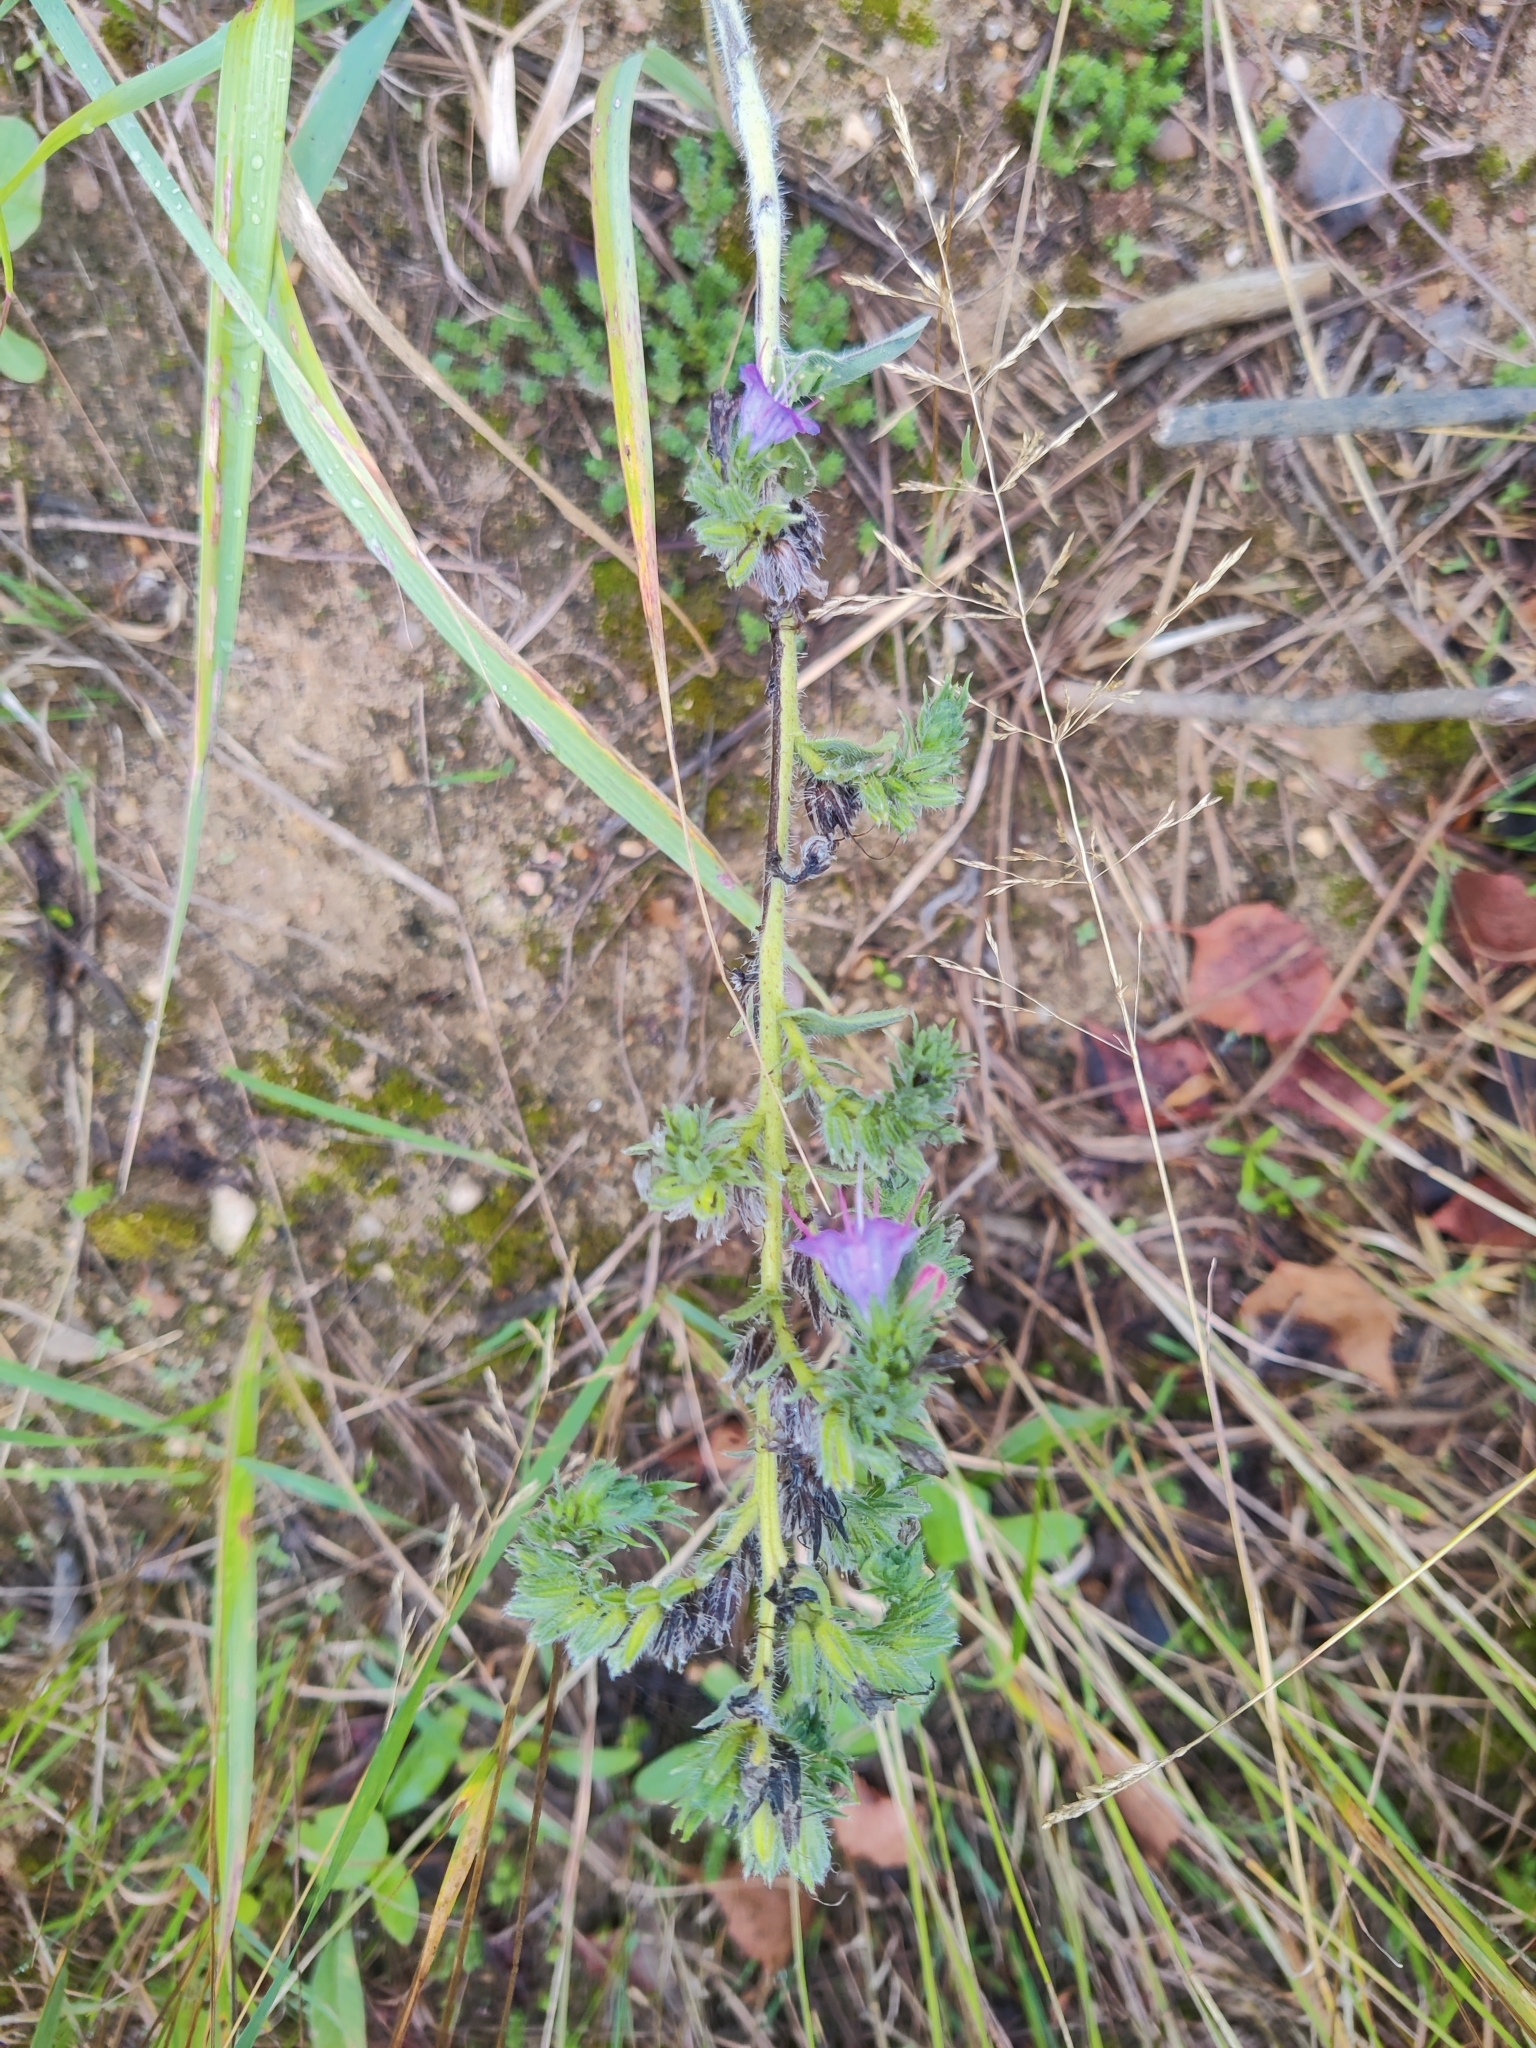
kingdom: Plantae
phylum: Tracheophyta
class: Magnoliopsida
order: Boraginales
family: Boraginaceae
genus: Echium
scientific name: Echium vulgare
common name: Common viper's bugloss
